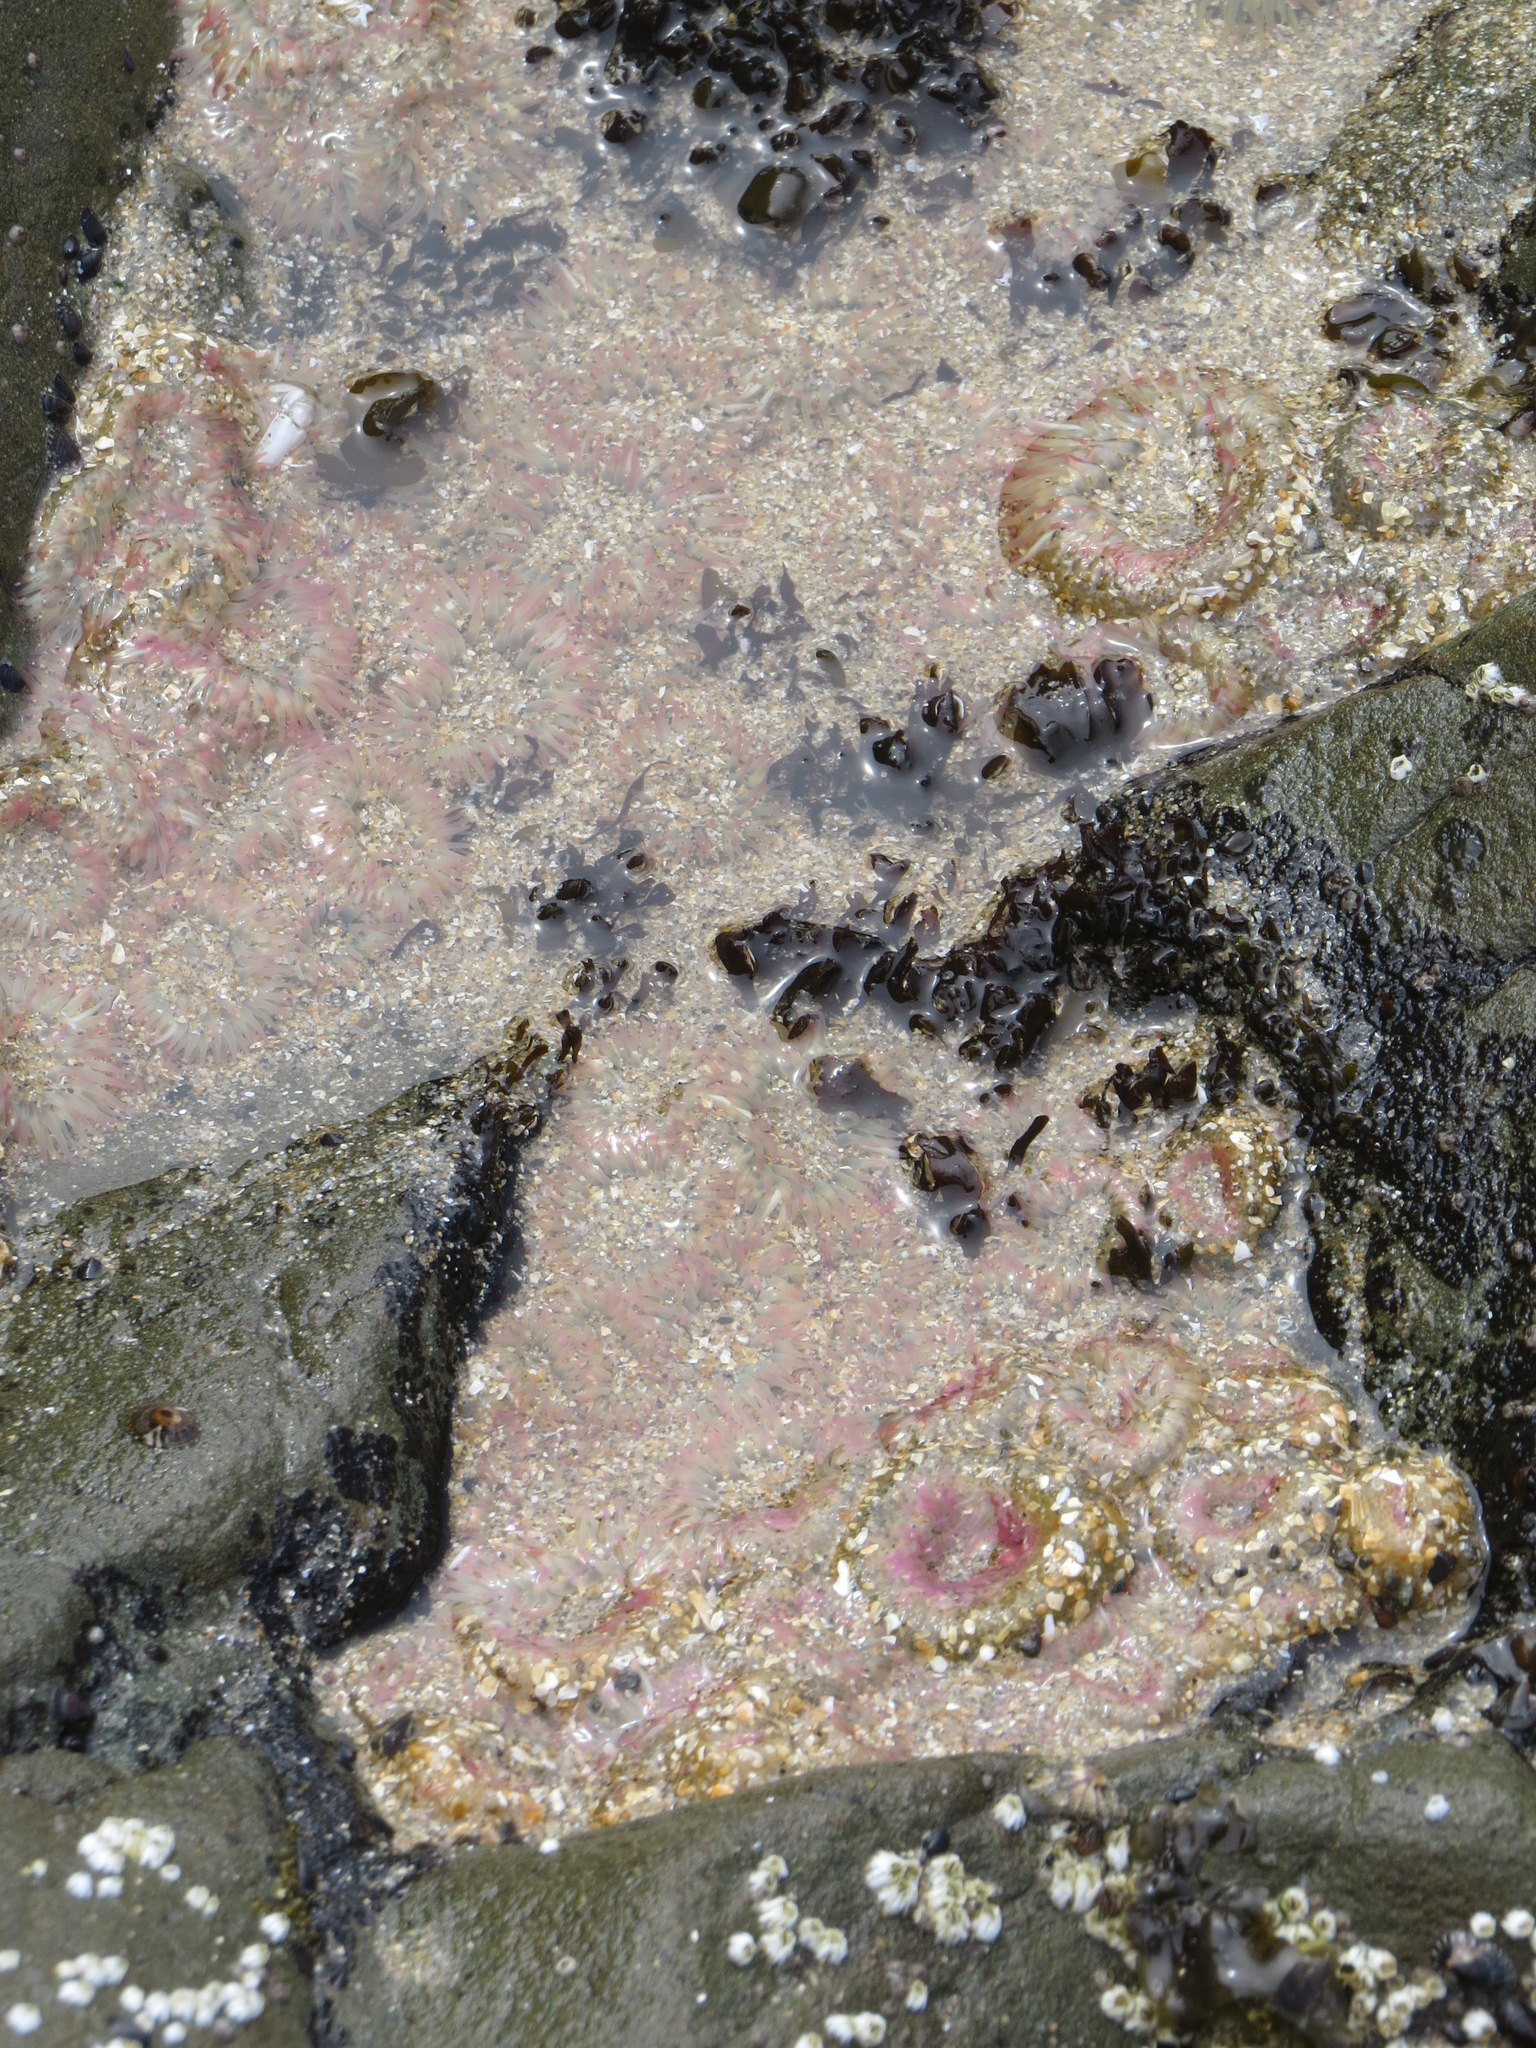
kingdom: Animalia
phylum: Cnidaria
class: Anthozoa
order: Actiniaria
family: Actiniidae
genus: Anthopleura
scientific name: Anthopleura elegantissima
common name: Clonal anemone
